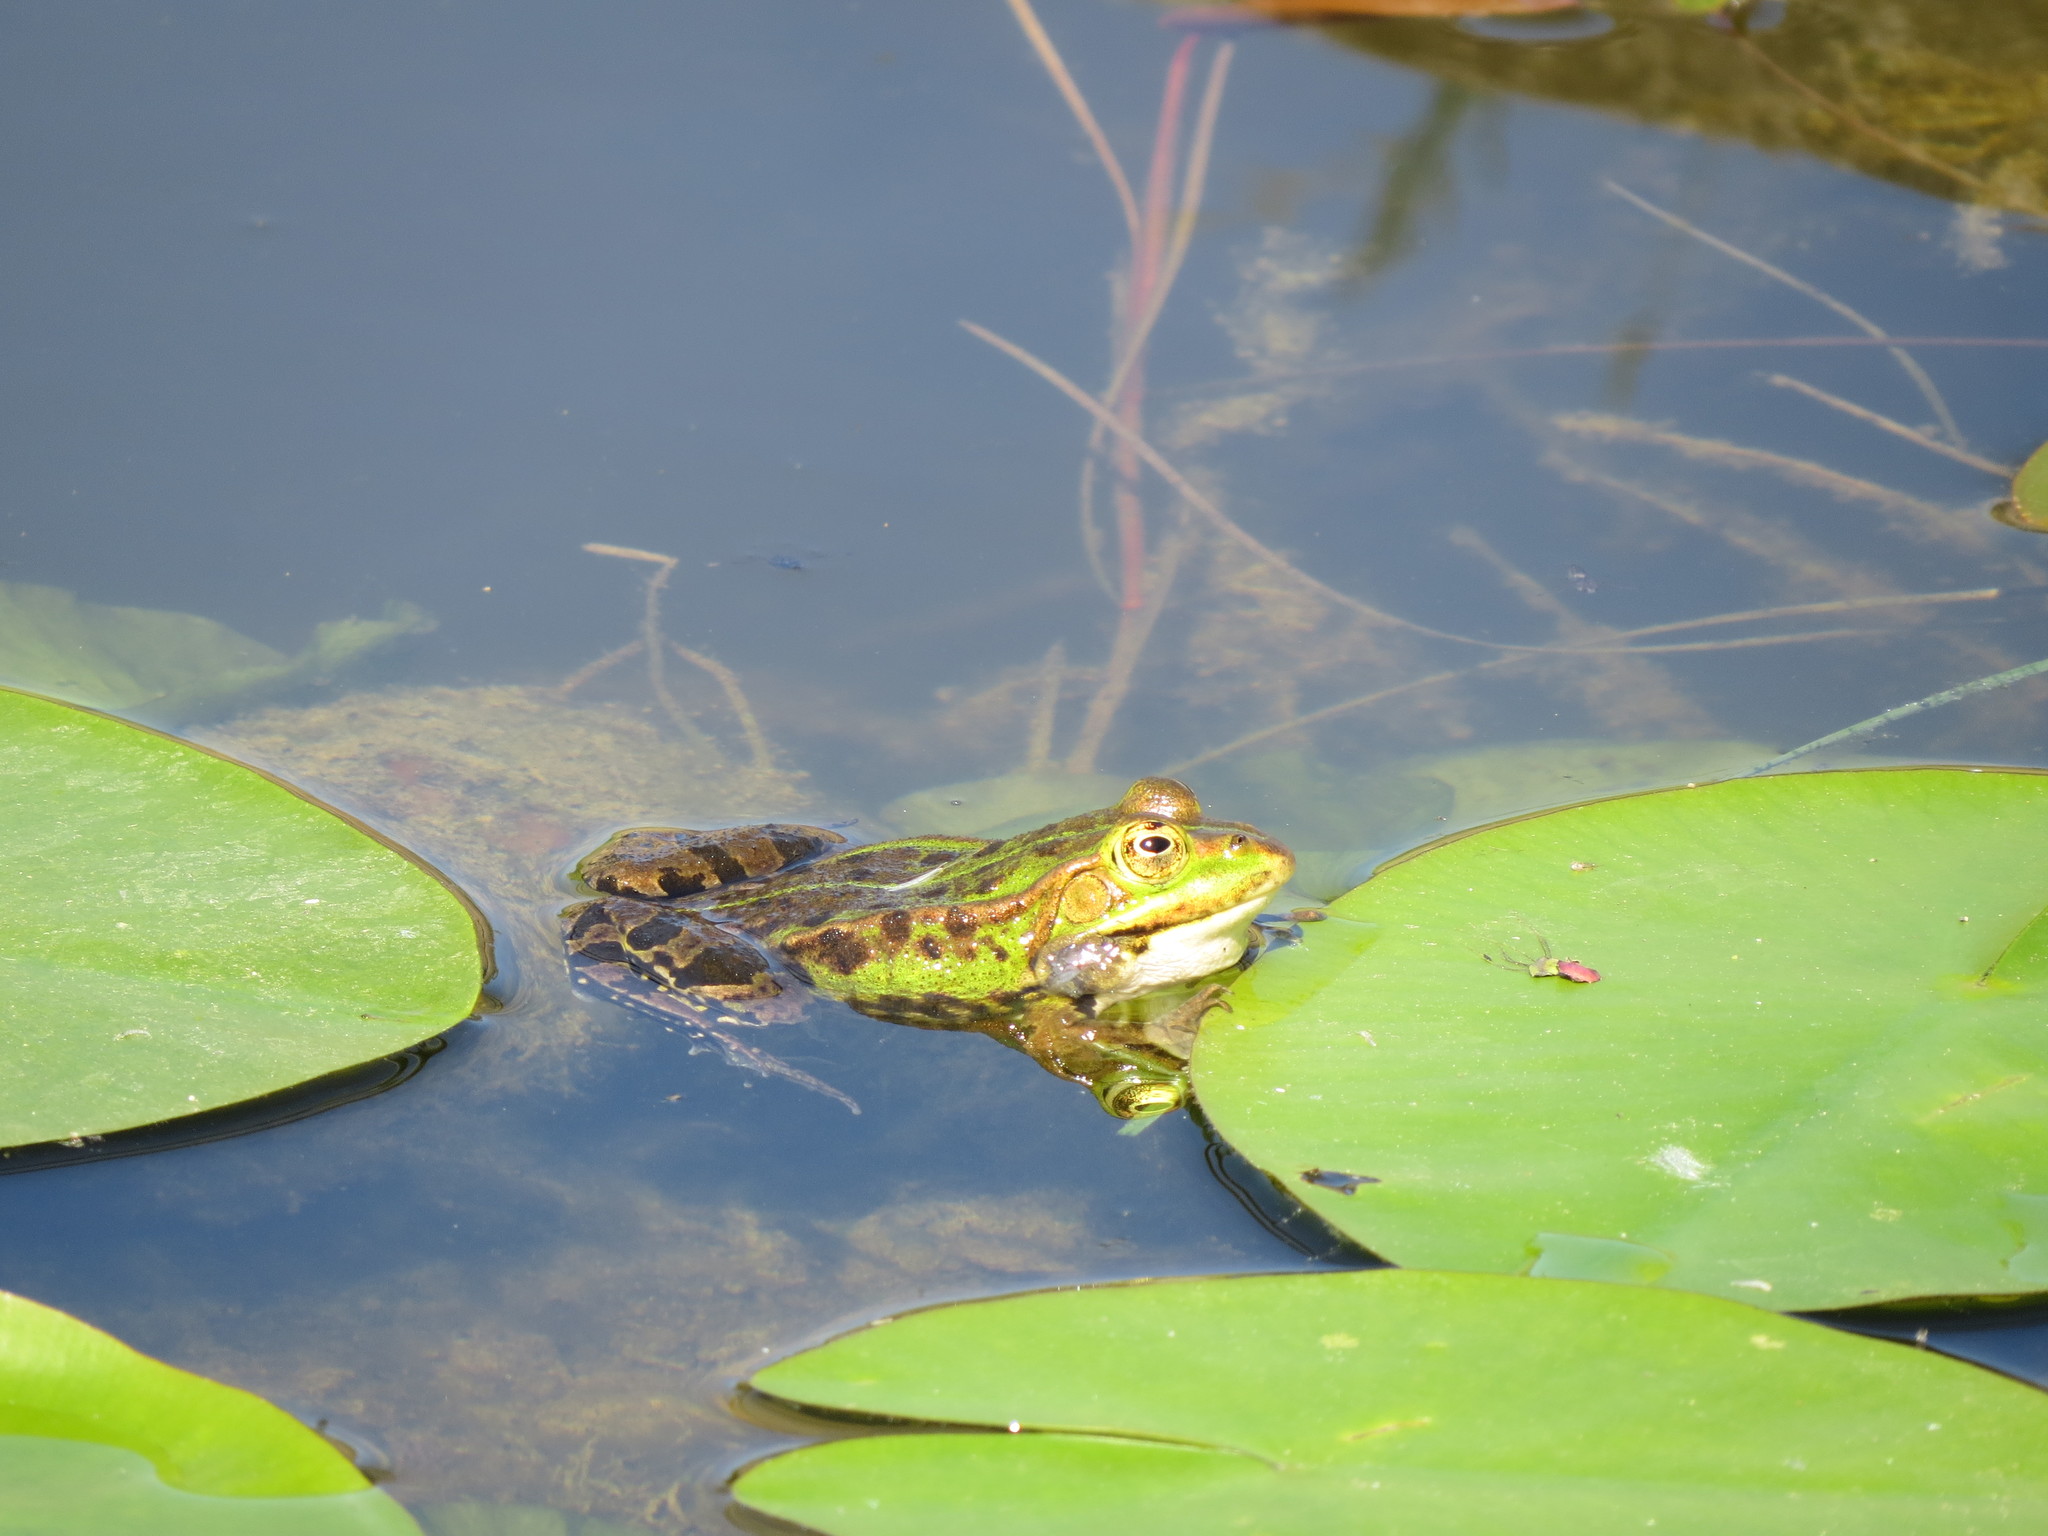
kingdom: Animalia
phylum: Chordata
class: Amphibia
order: Anura
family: Ranidae
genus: Pelophylax
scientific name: Pelophylax
